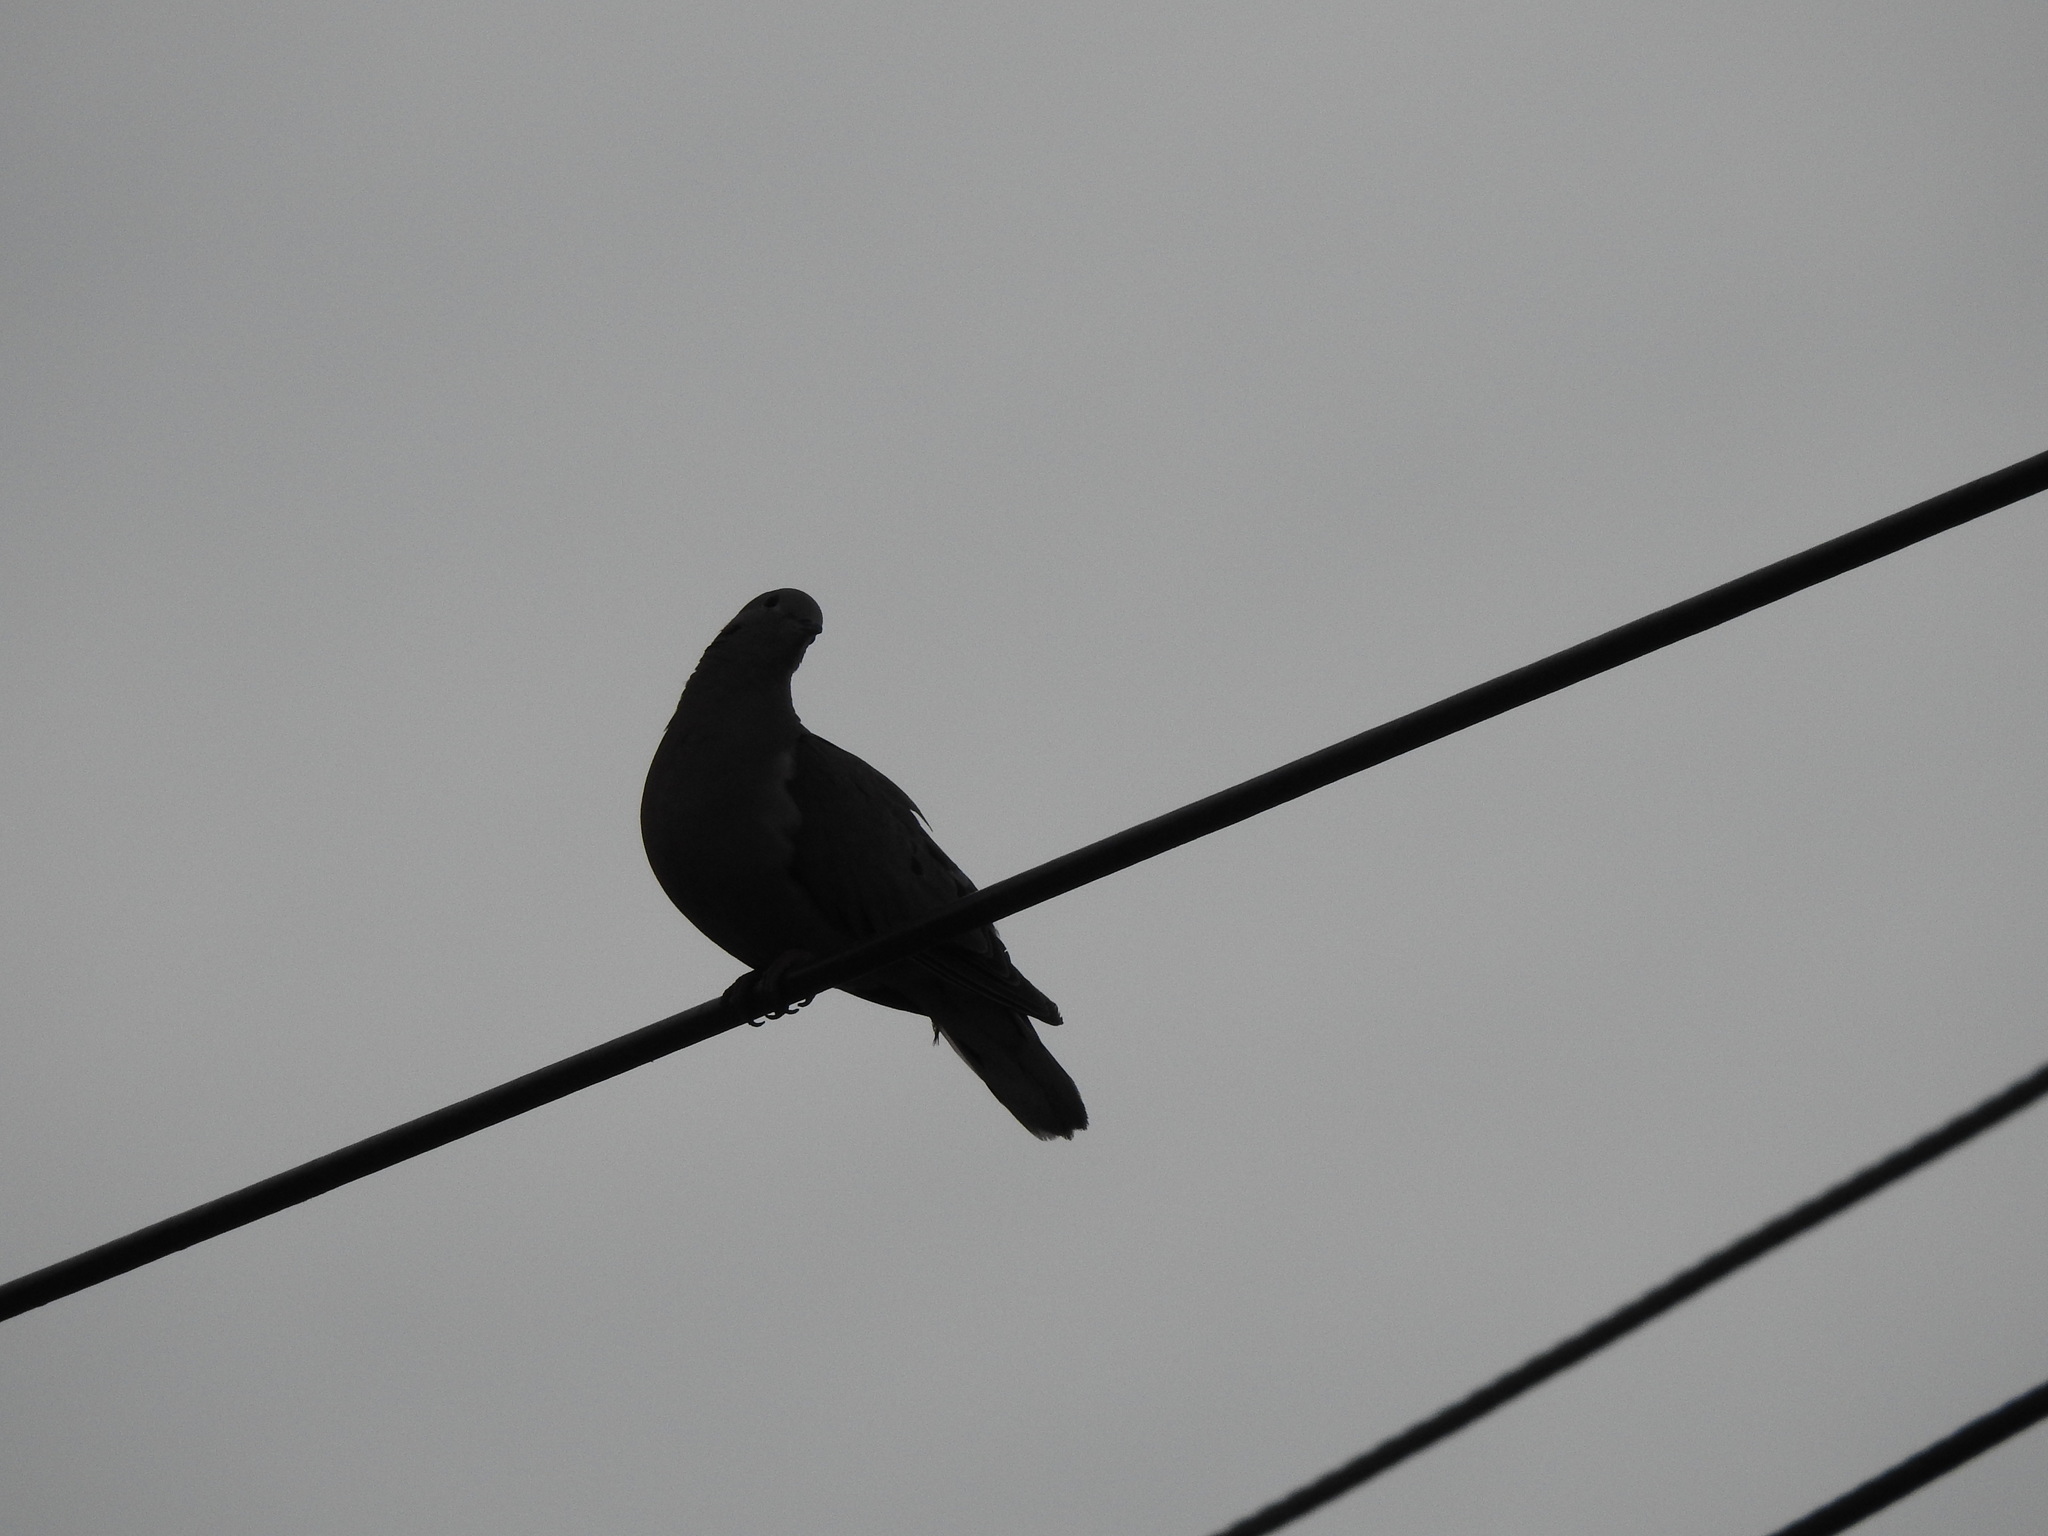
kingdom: Animalia
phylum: Chordata
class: Aves
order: Columbiformes
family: Columbidae
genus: Zenaida
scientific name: Zenaida auriculata
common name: Eared dove
